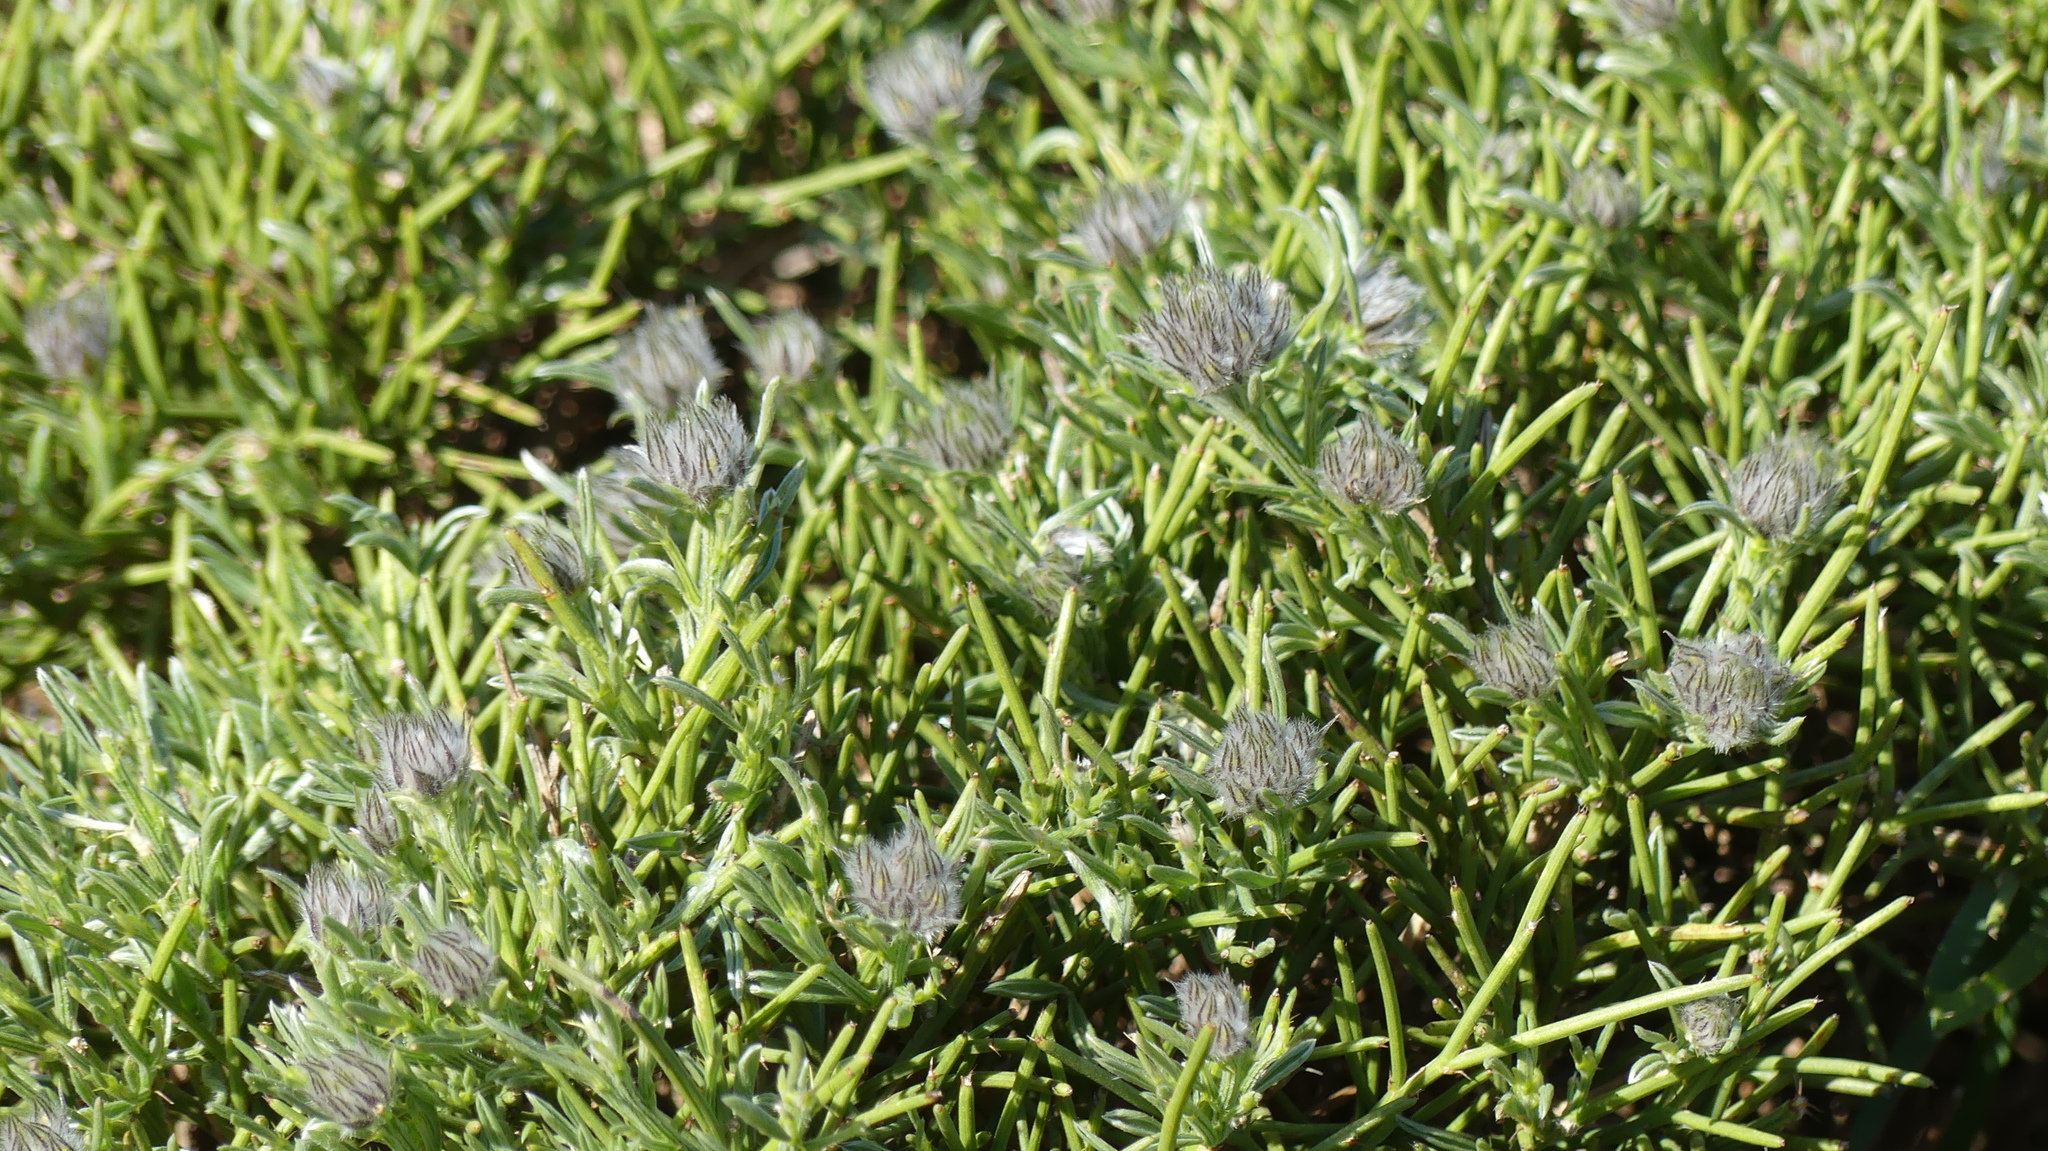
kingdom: Plantae
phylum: Tracheophyta
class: Magnoliopsida
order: Fabales
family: Fabaceae
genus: Genista
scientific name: Genista cephalantha
